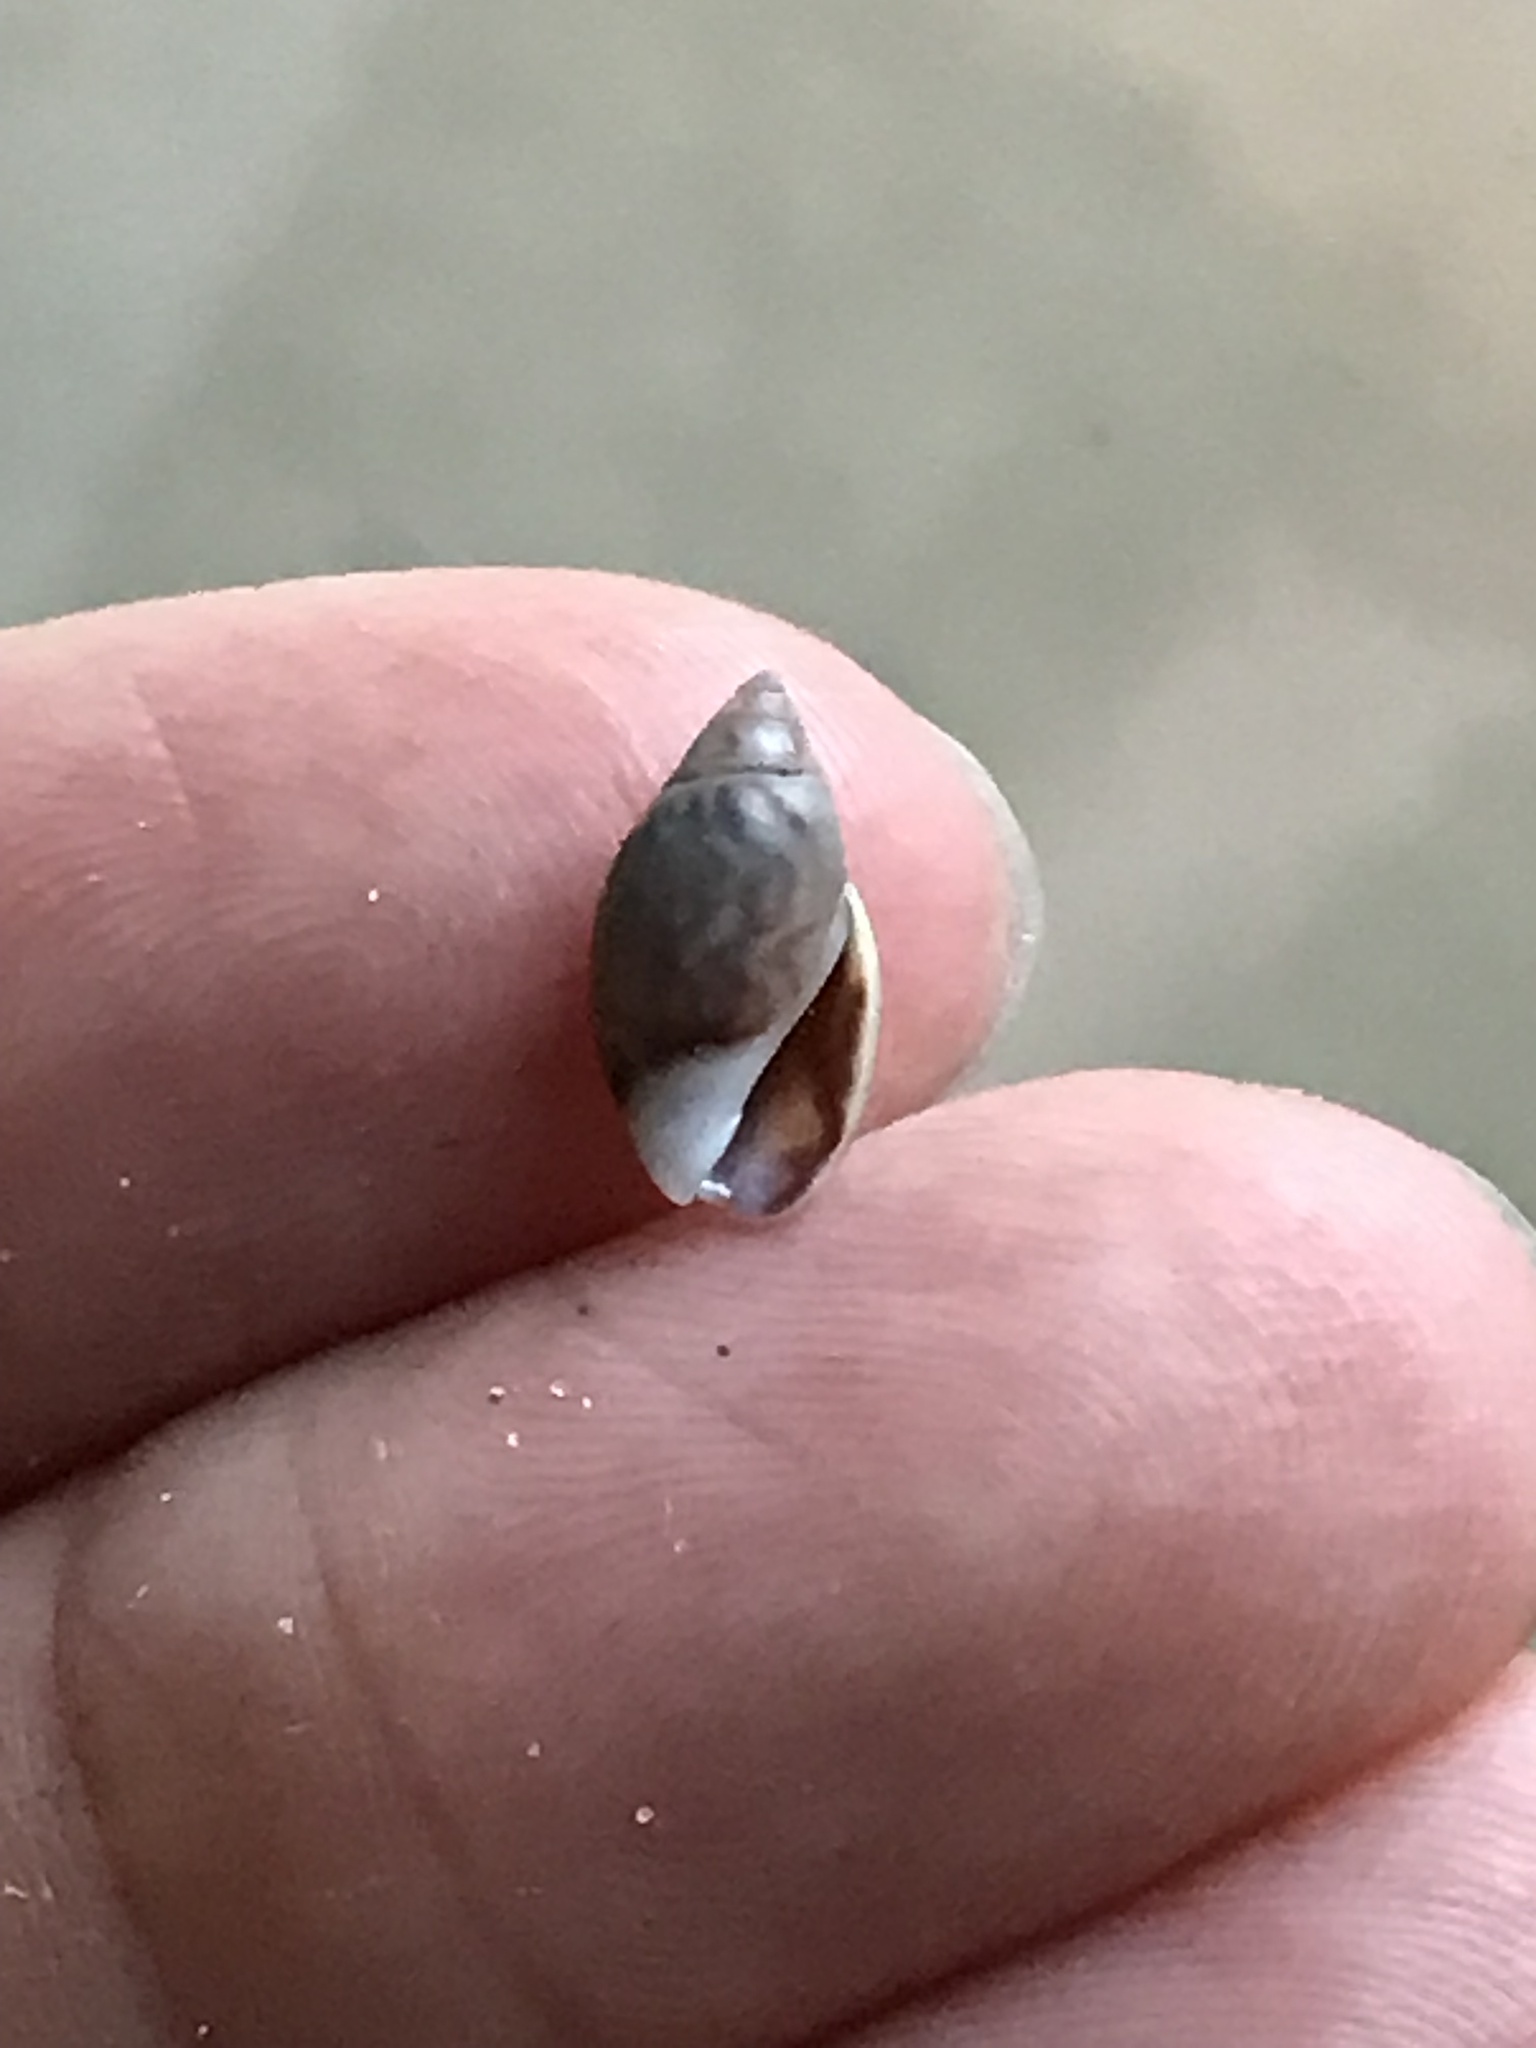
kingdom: Animalia
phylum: Mollusca
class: Gastropoda
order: Neogastropoda
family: Olividae
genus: Callianax
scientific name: Callianax alectona
